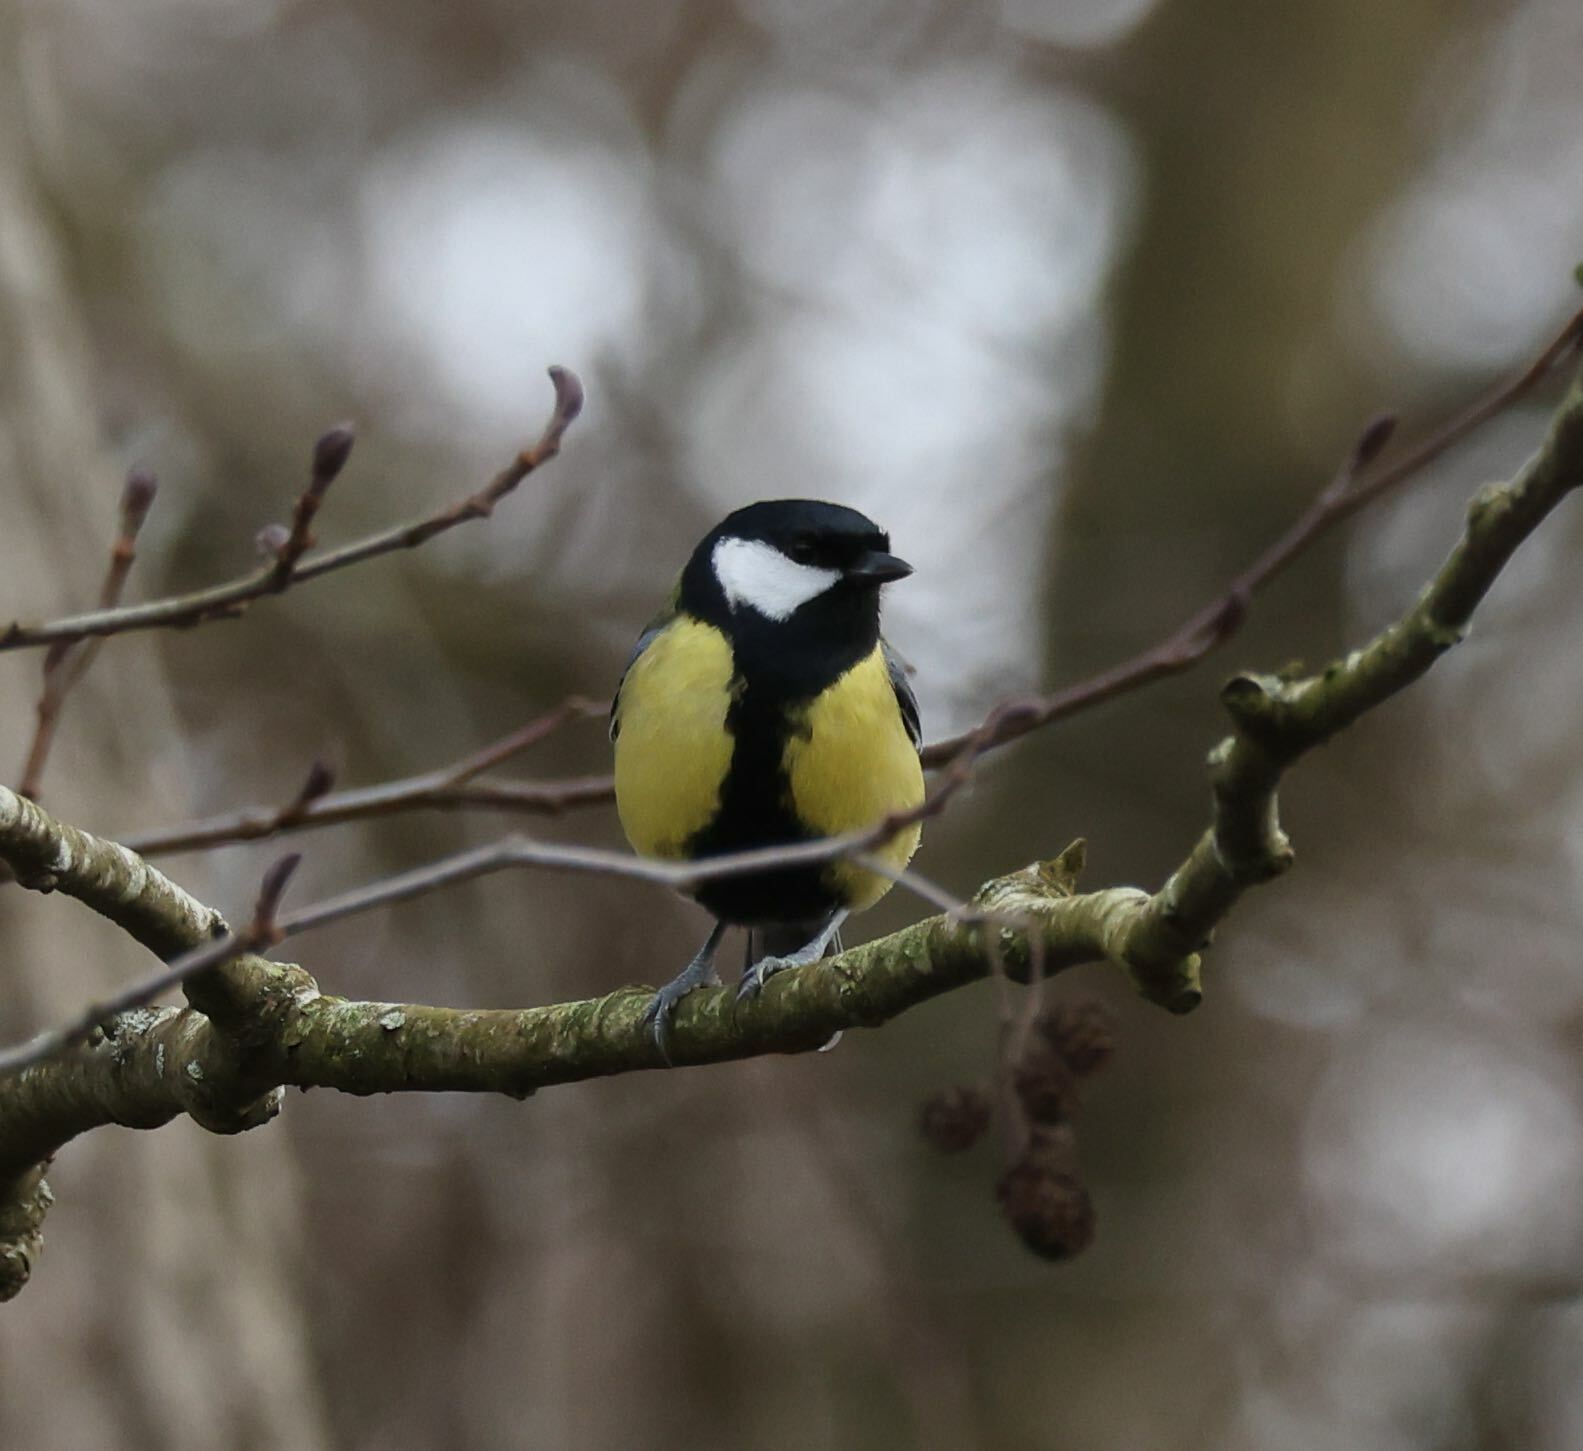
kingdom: Animalia
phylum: Chordata
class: Aves
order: Passeriformes
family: Paridae
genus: Parus
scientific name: Parus major
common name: Great tit
